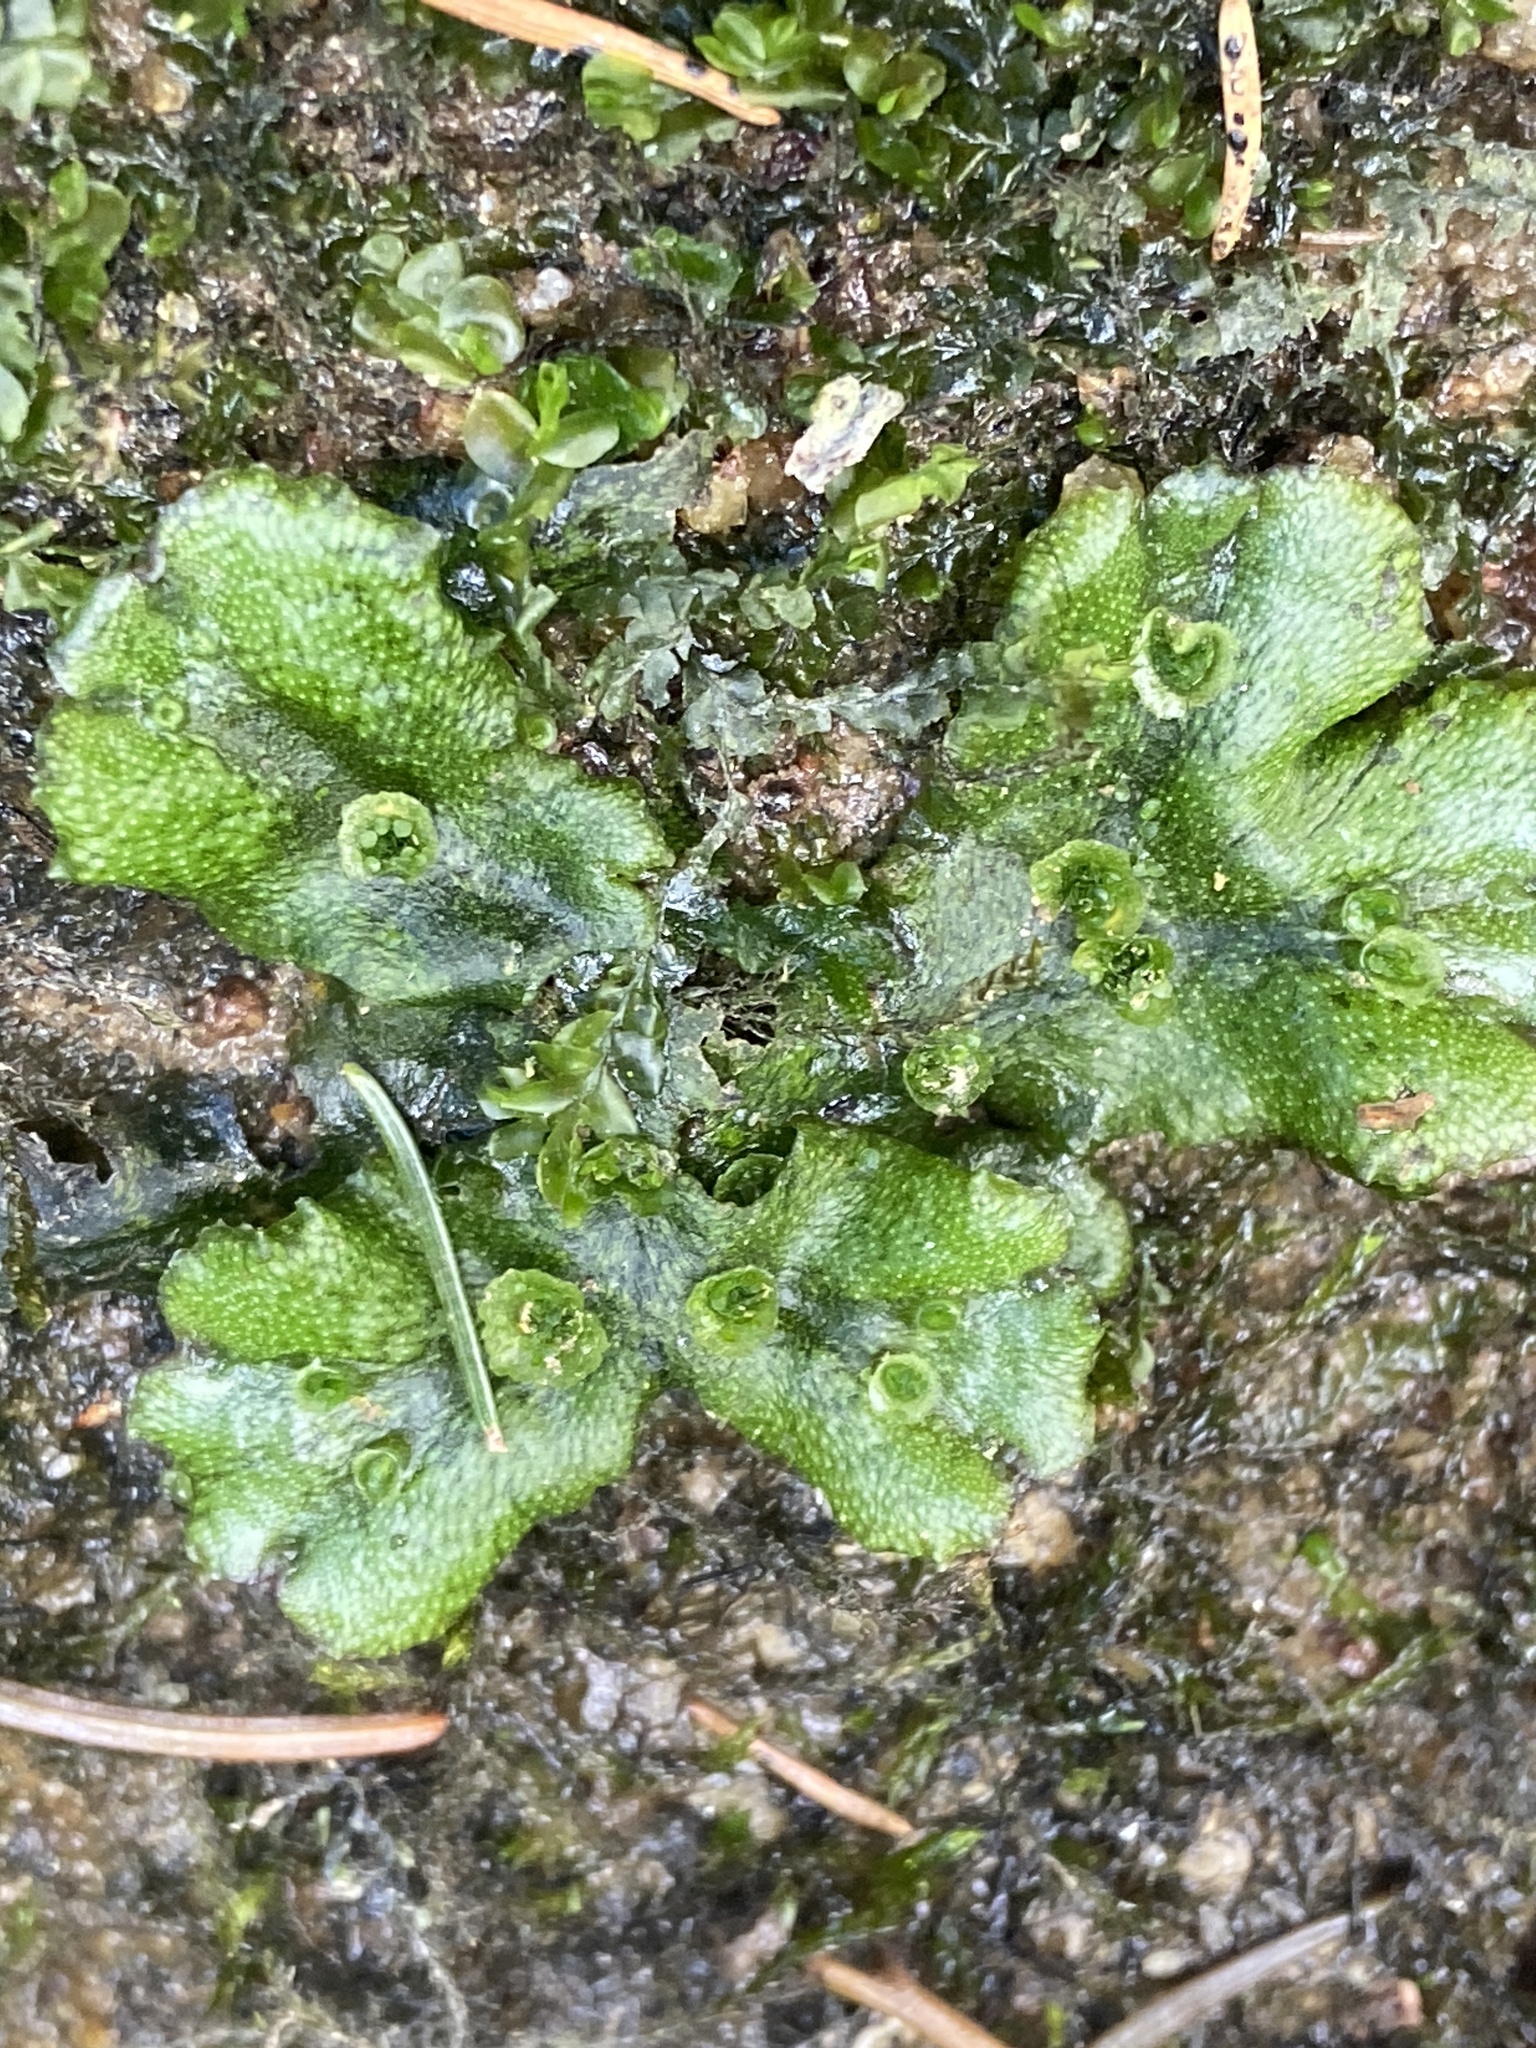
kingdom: Plantae
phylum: Marchantiophyta
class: Marchantiopsida
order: Marchantiales
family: Marchantiaceae
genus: Marchantia
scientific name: Marchantia polymorpha
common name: Common liverwort
